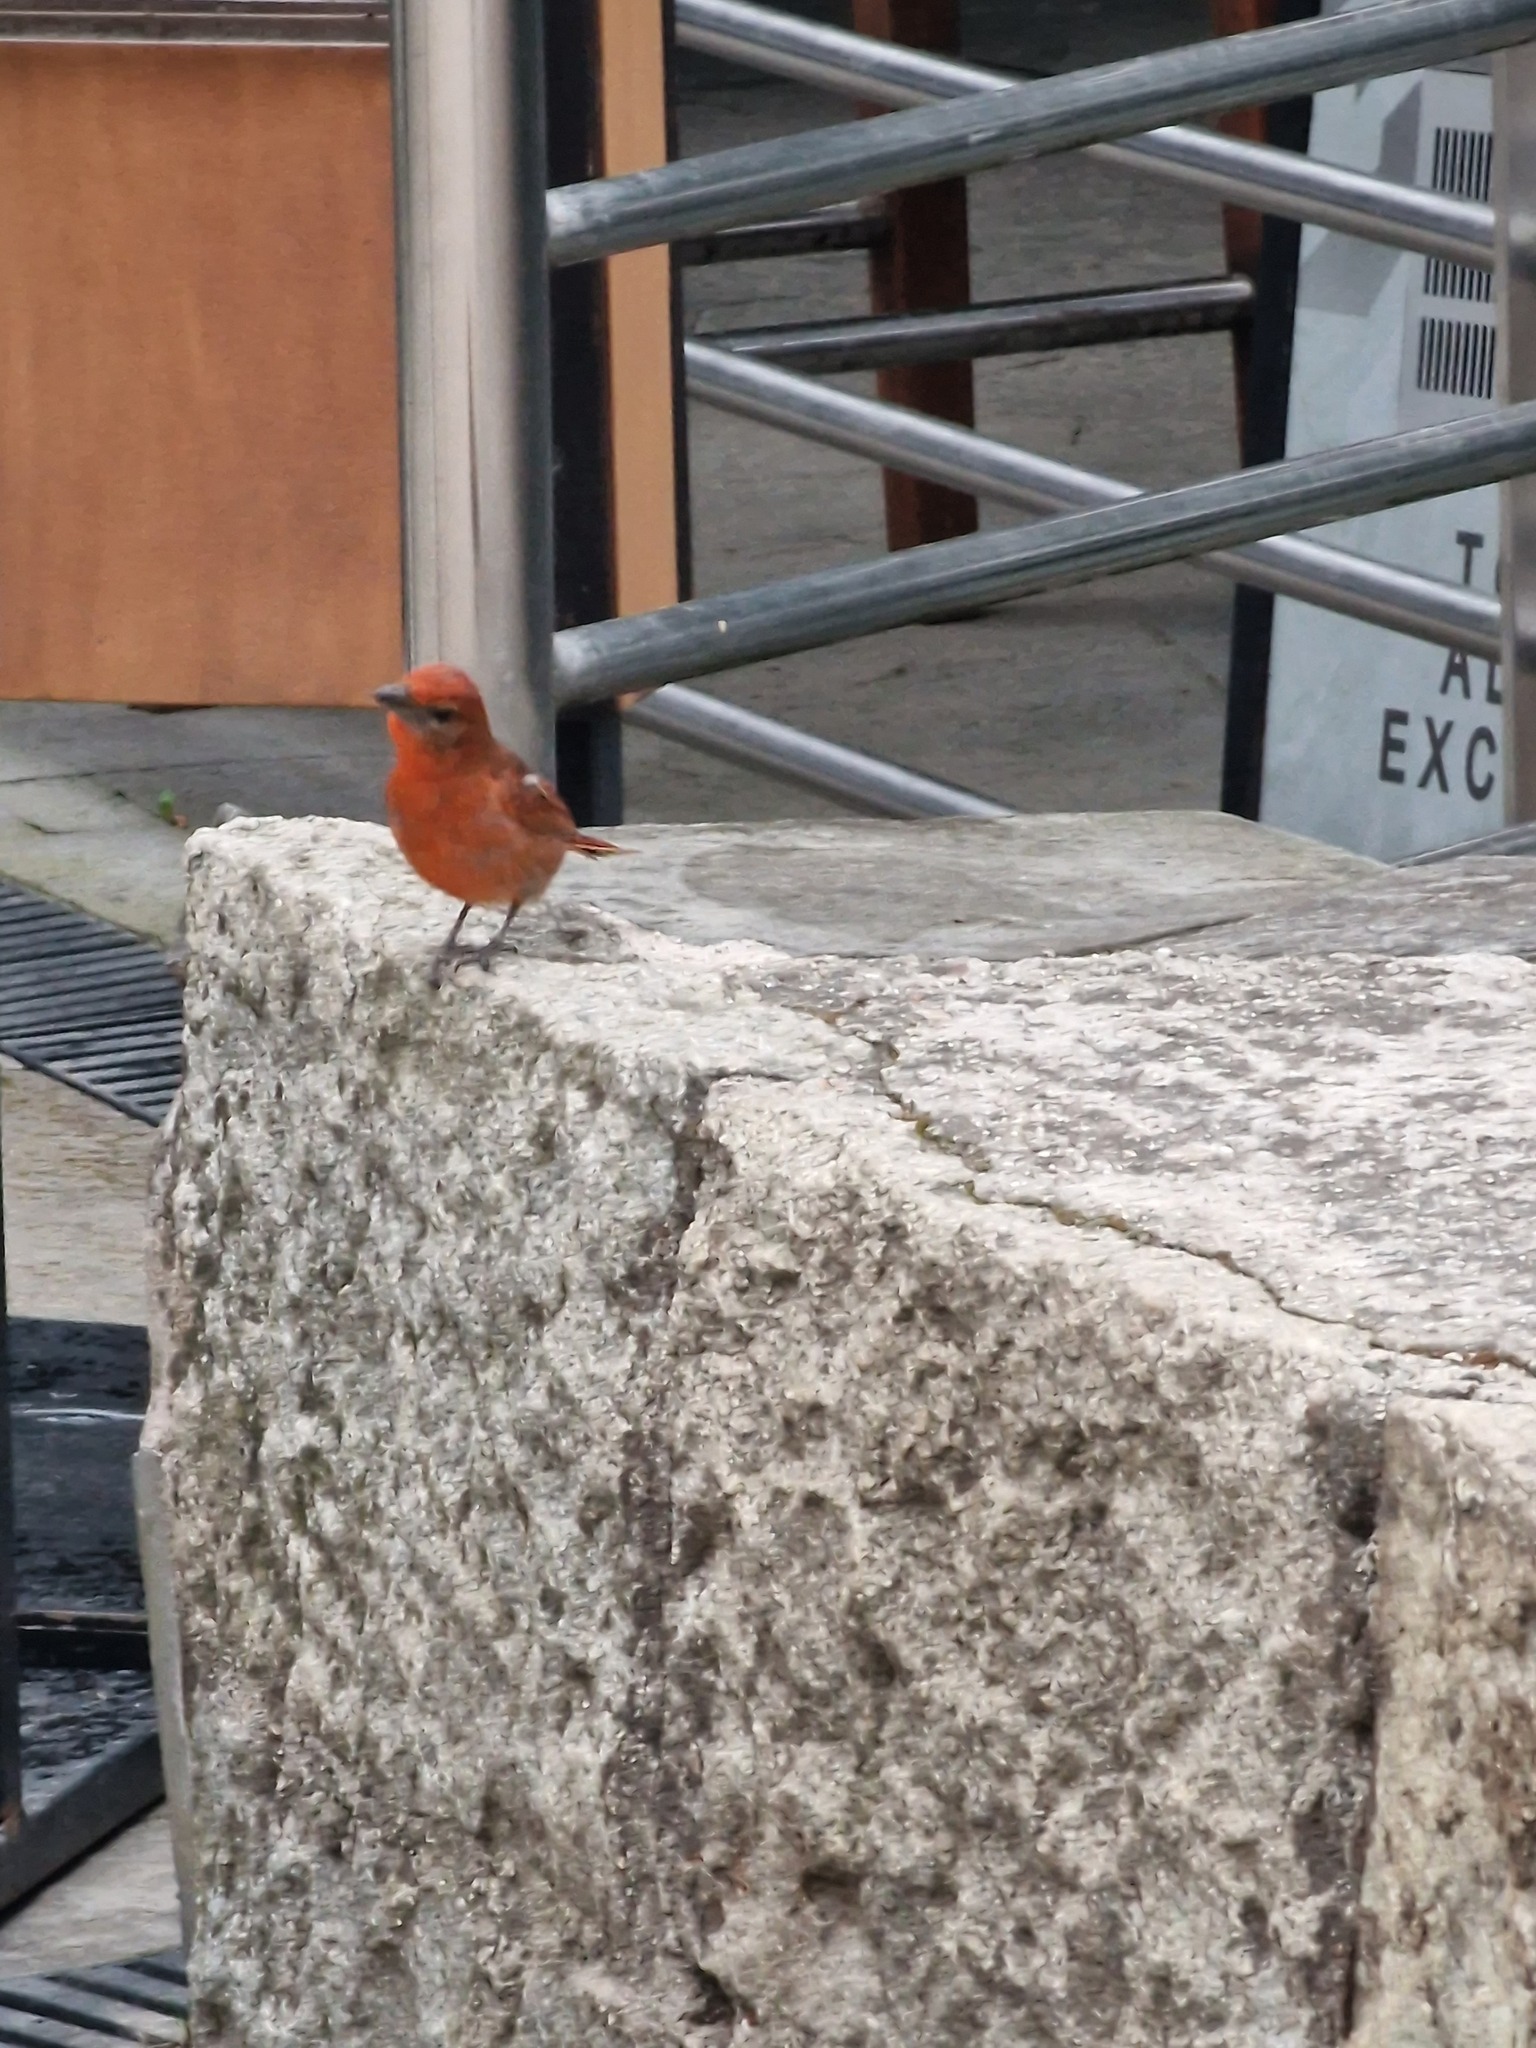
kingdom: Animalia
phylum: Chordata
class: Aves
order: Passeriformes
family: Cardinalidae
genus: Piranga
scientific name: Piranga flava
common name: Red tanager
